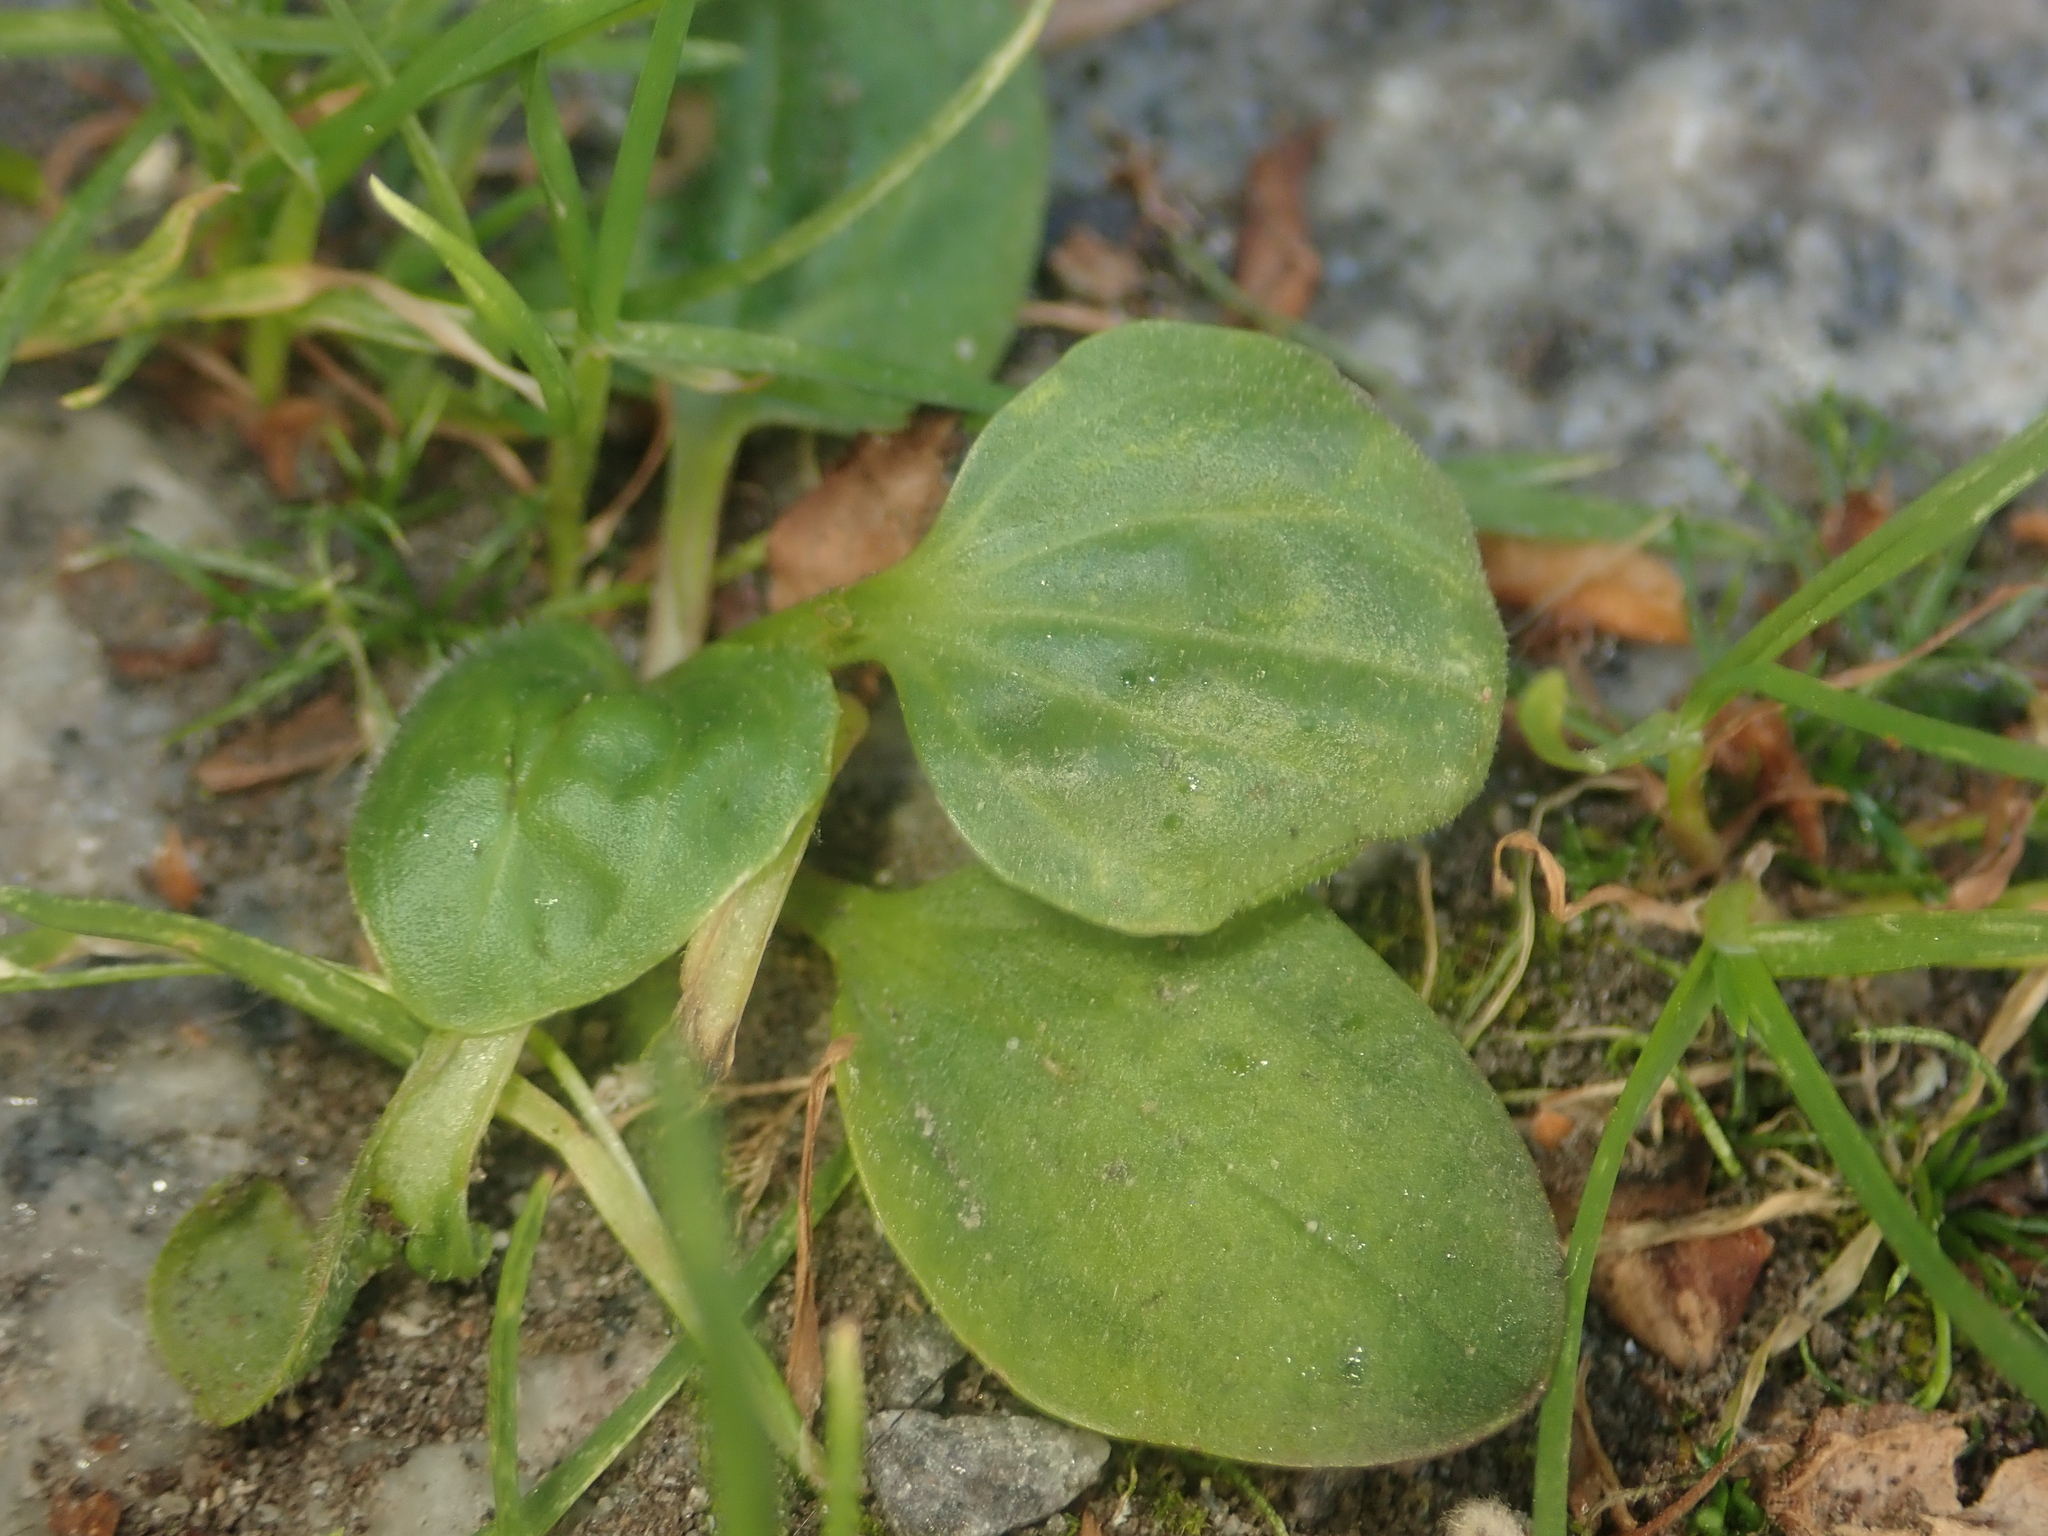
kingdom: Plantae
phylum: Tracheophyta
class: Magnoliopsida
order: Lamiales
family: Plantaginaceae
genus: Plantago
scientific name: Plantago major
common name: Common plantain
